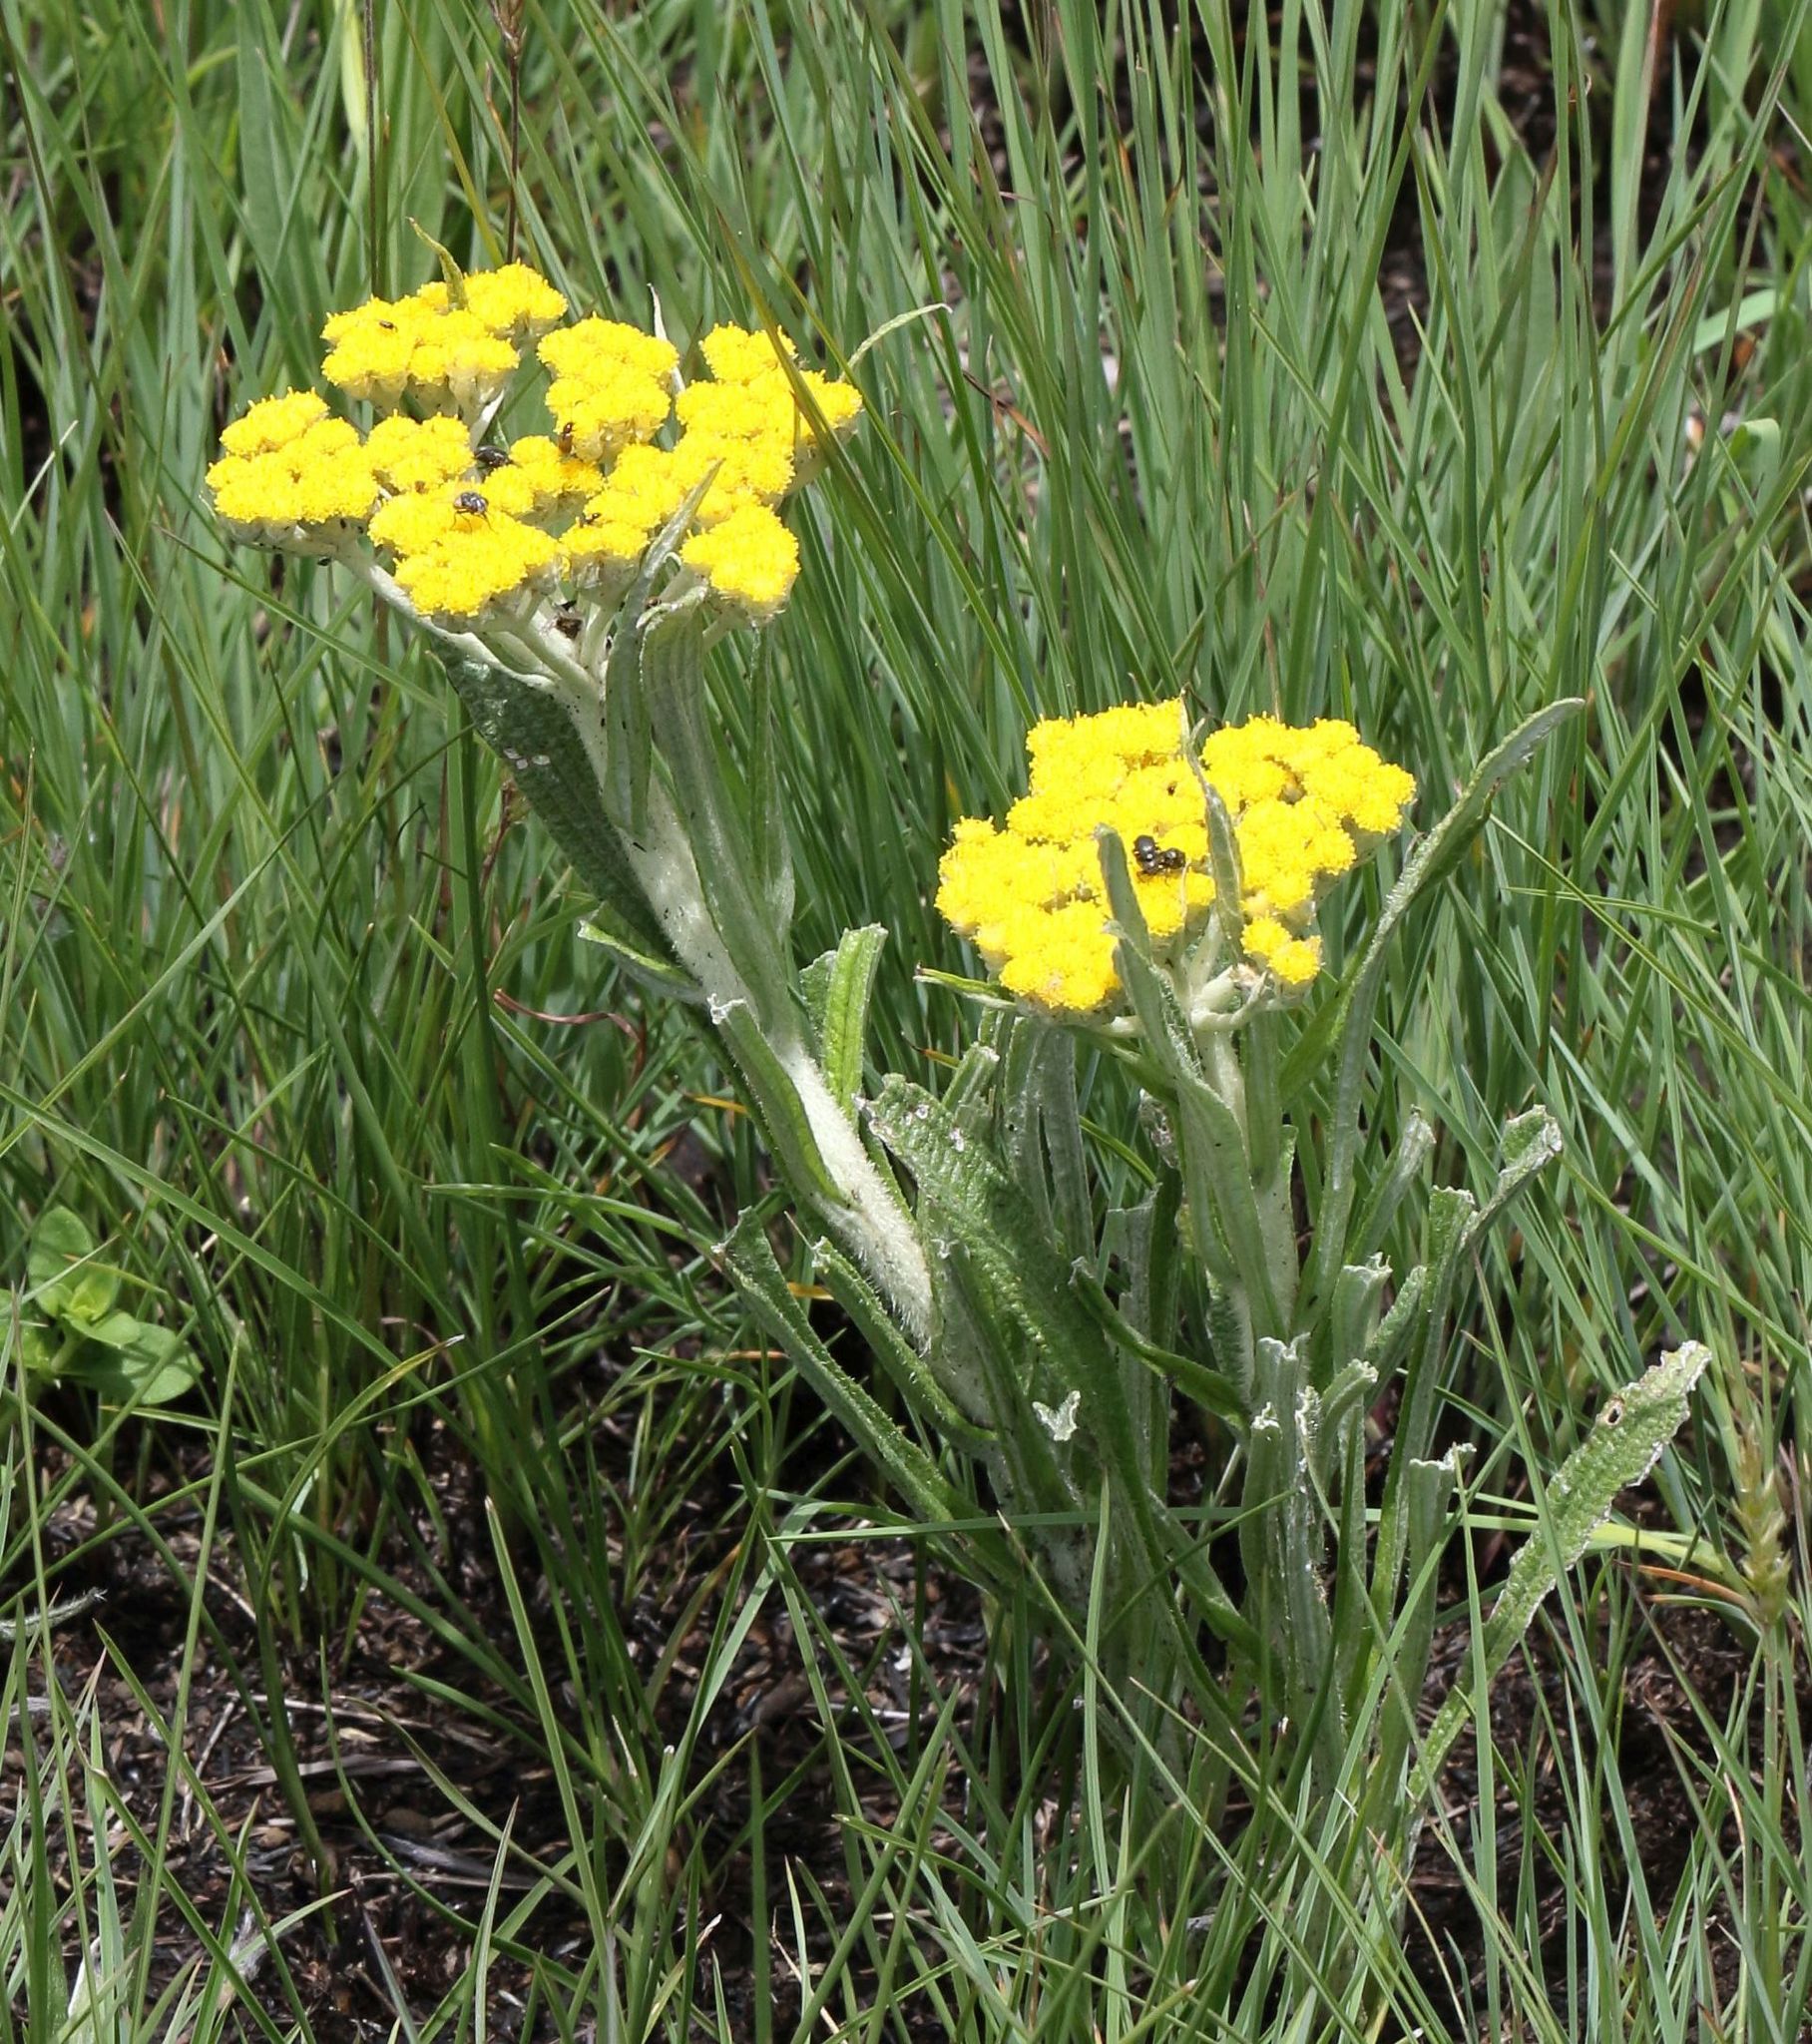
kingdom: Plantae
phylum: Tracheophyta
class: Magnoliopsida
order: Asterales
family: Asteraceae
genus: Helichrysum
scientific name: Helichrysum pallidum
